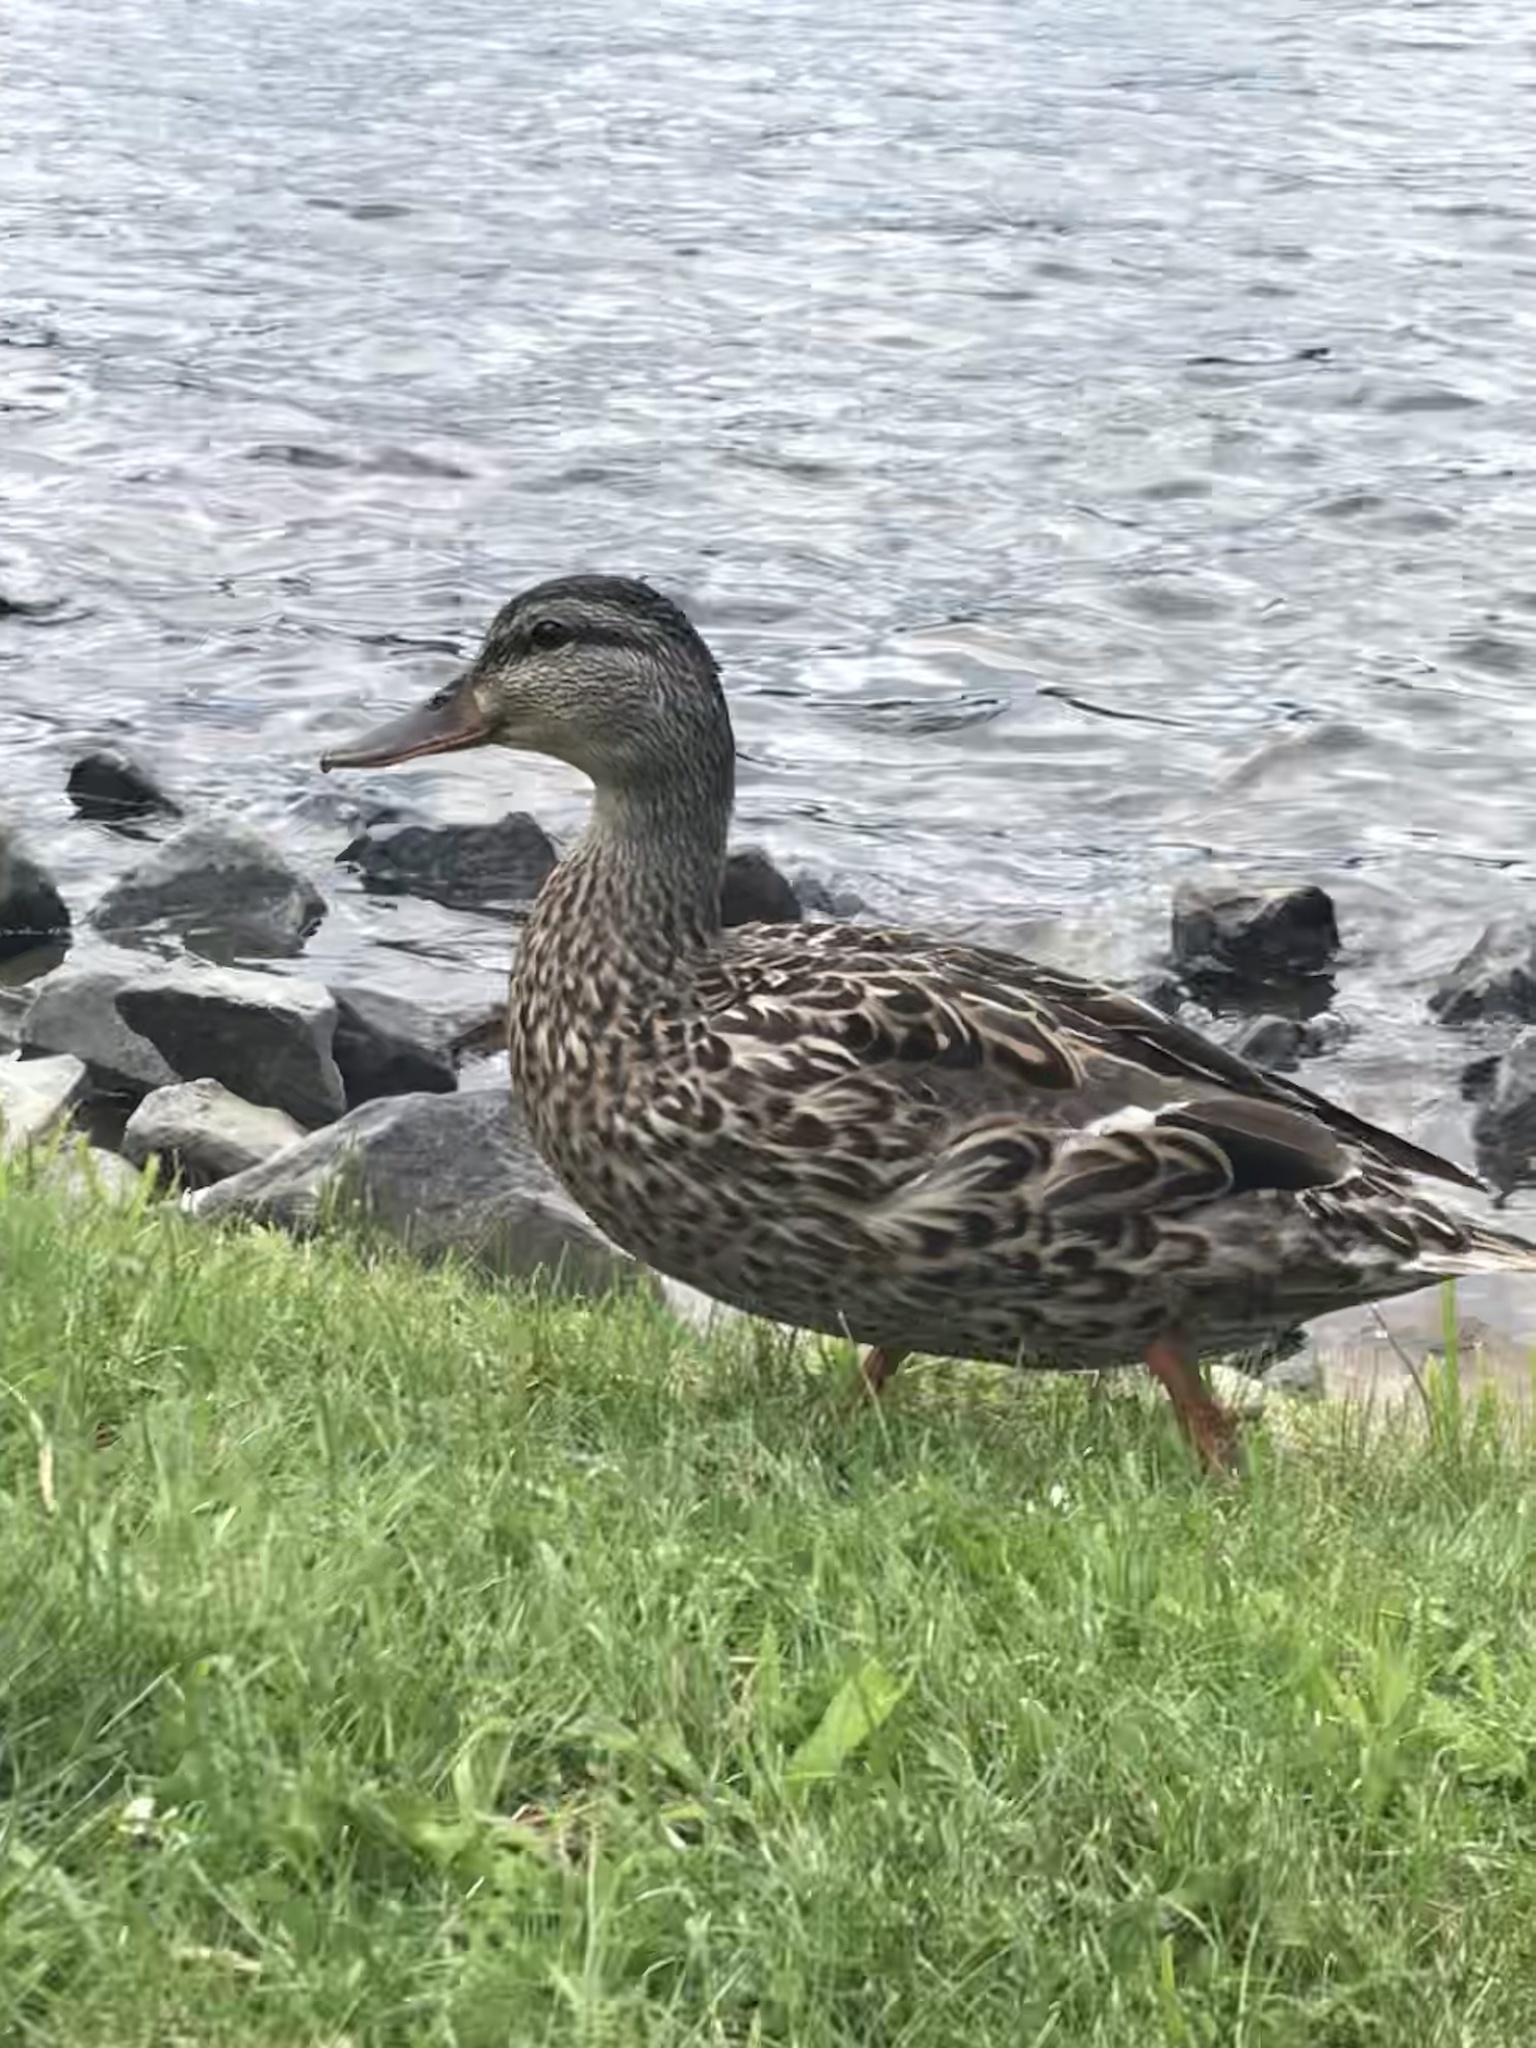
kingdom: Animalia
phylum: Chordata
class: Aves
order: Anseriformes
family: Anatidae
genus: Anas
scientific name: Anas platyrhynchos
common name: Mallard
